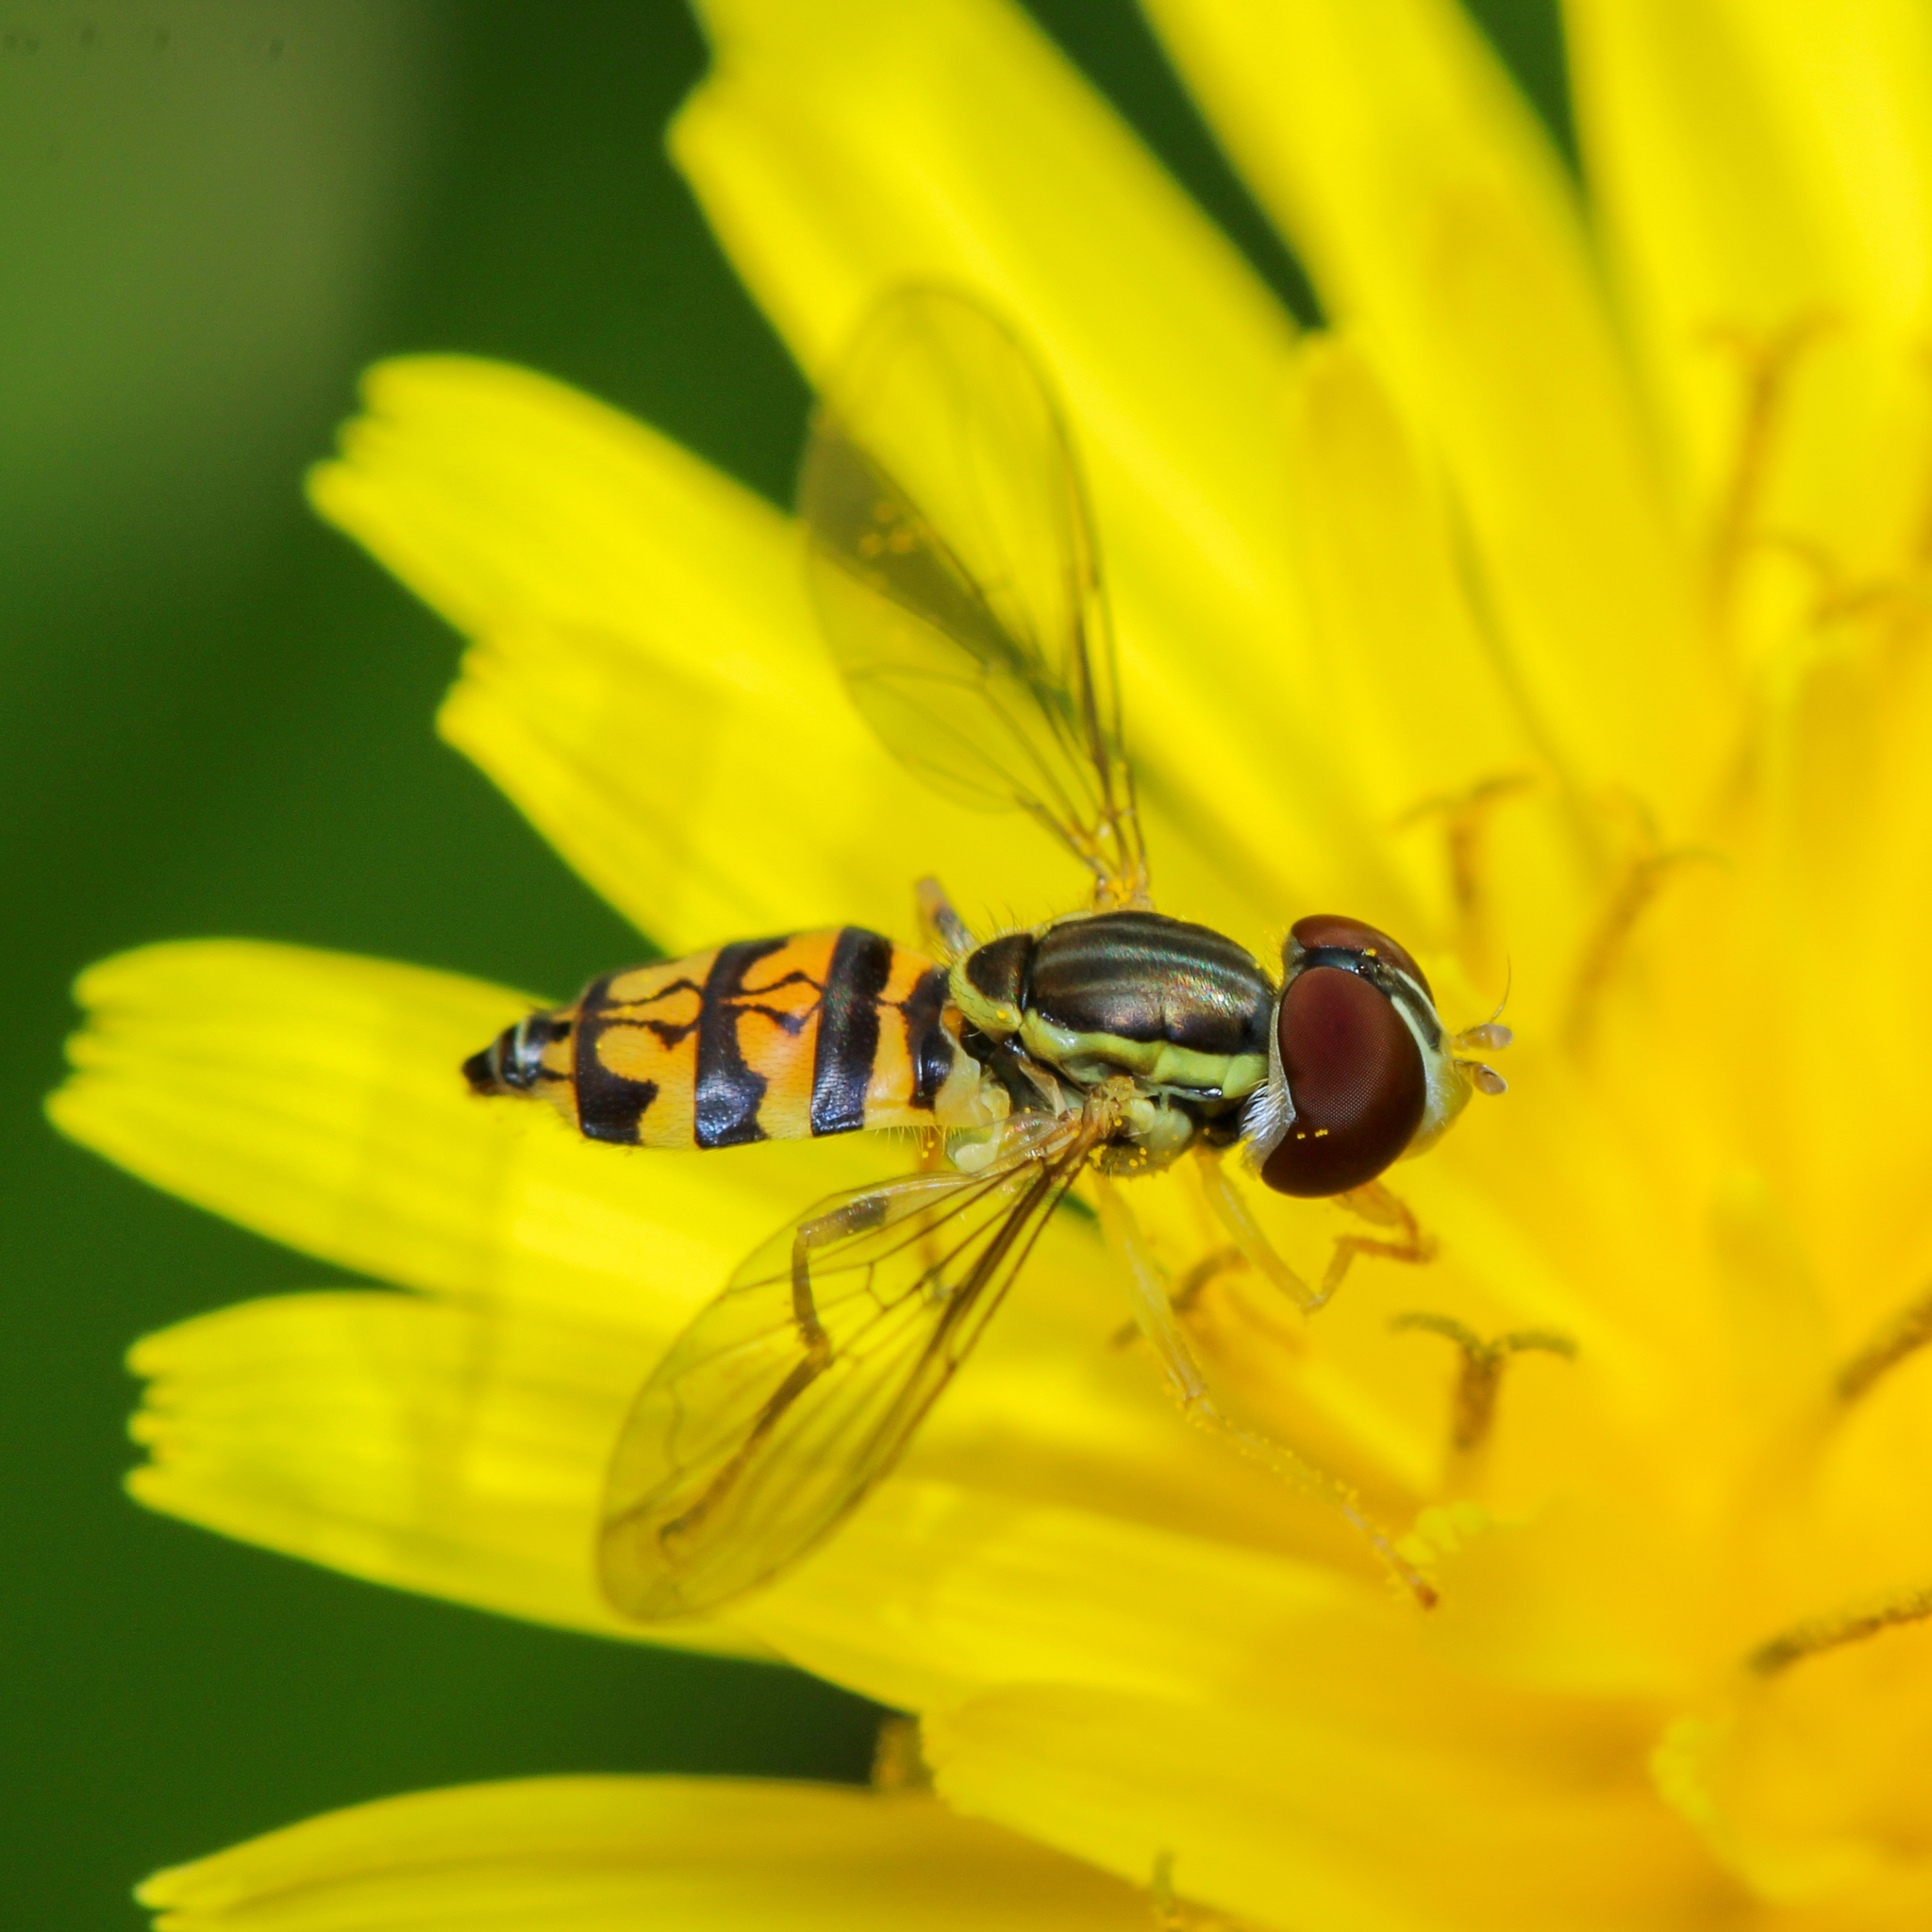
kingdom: Animalia
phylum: Arthropoda
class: Insecta
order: Diptera
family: Syrphidae
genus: Toxomerus
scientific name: Toxomerus geminatus
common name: Eastern calligrapher
